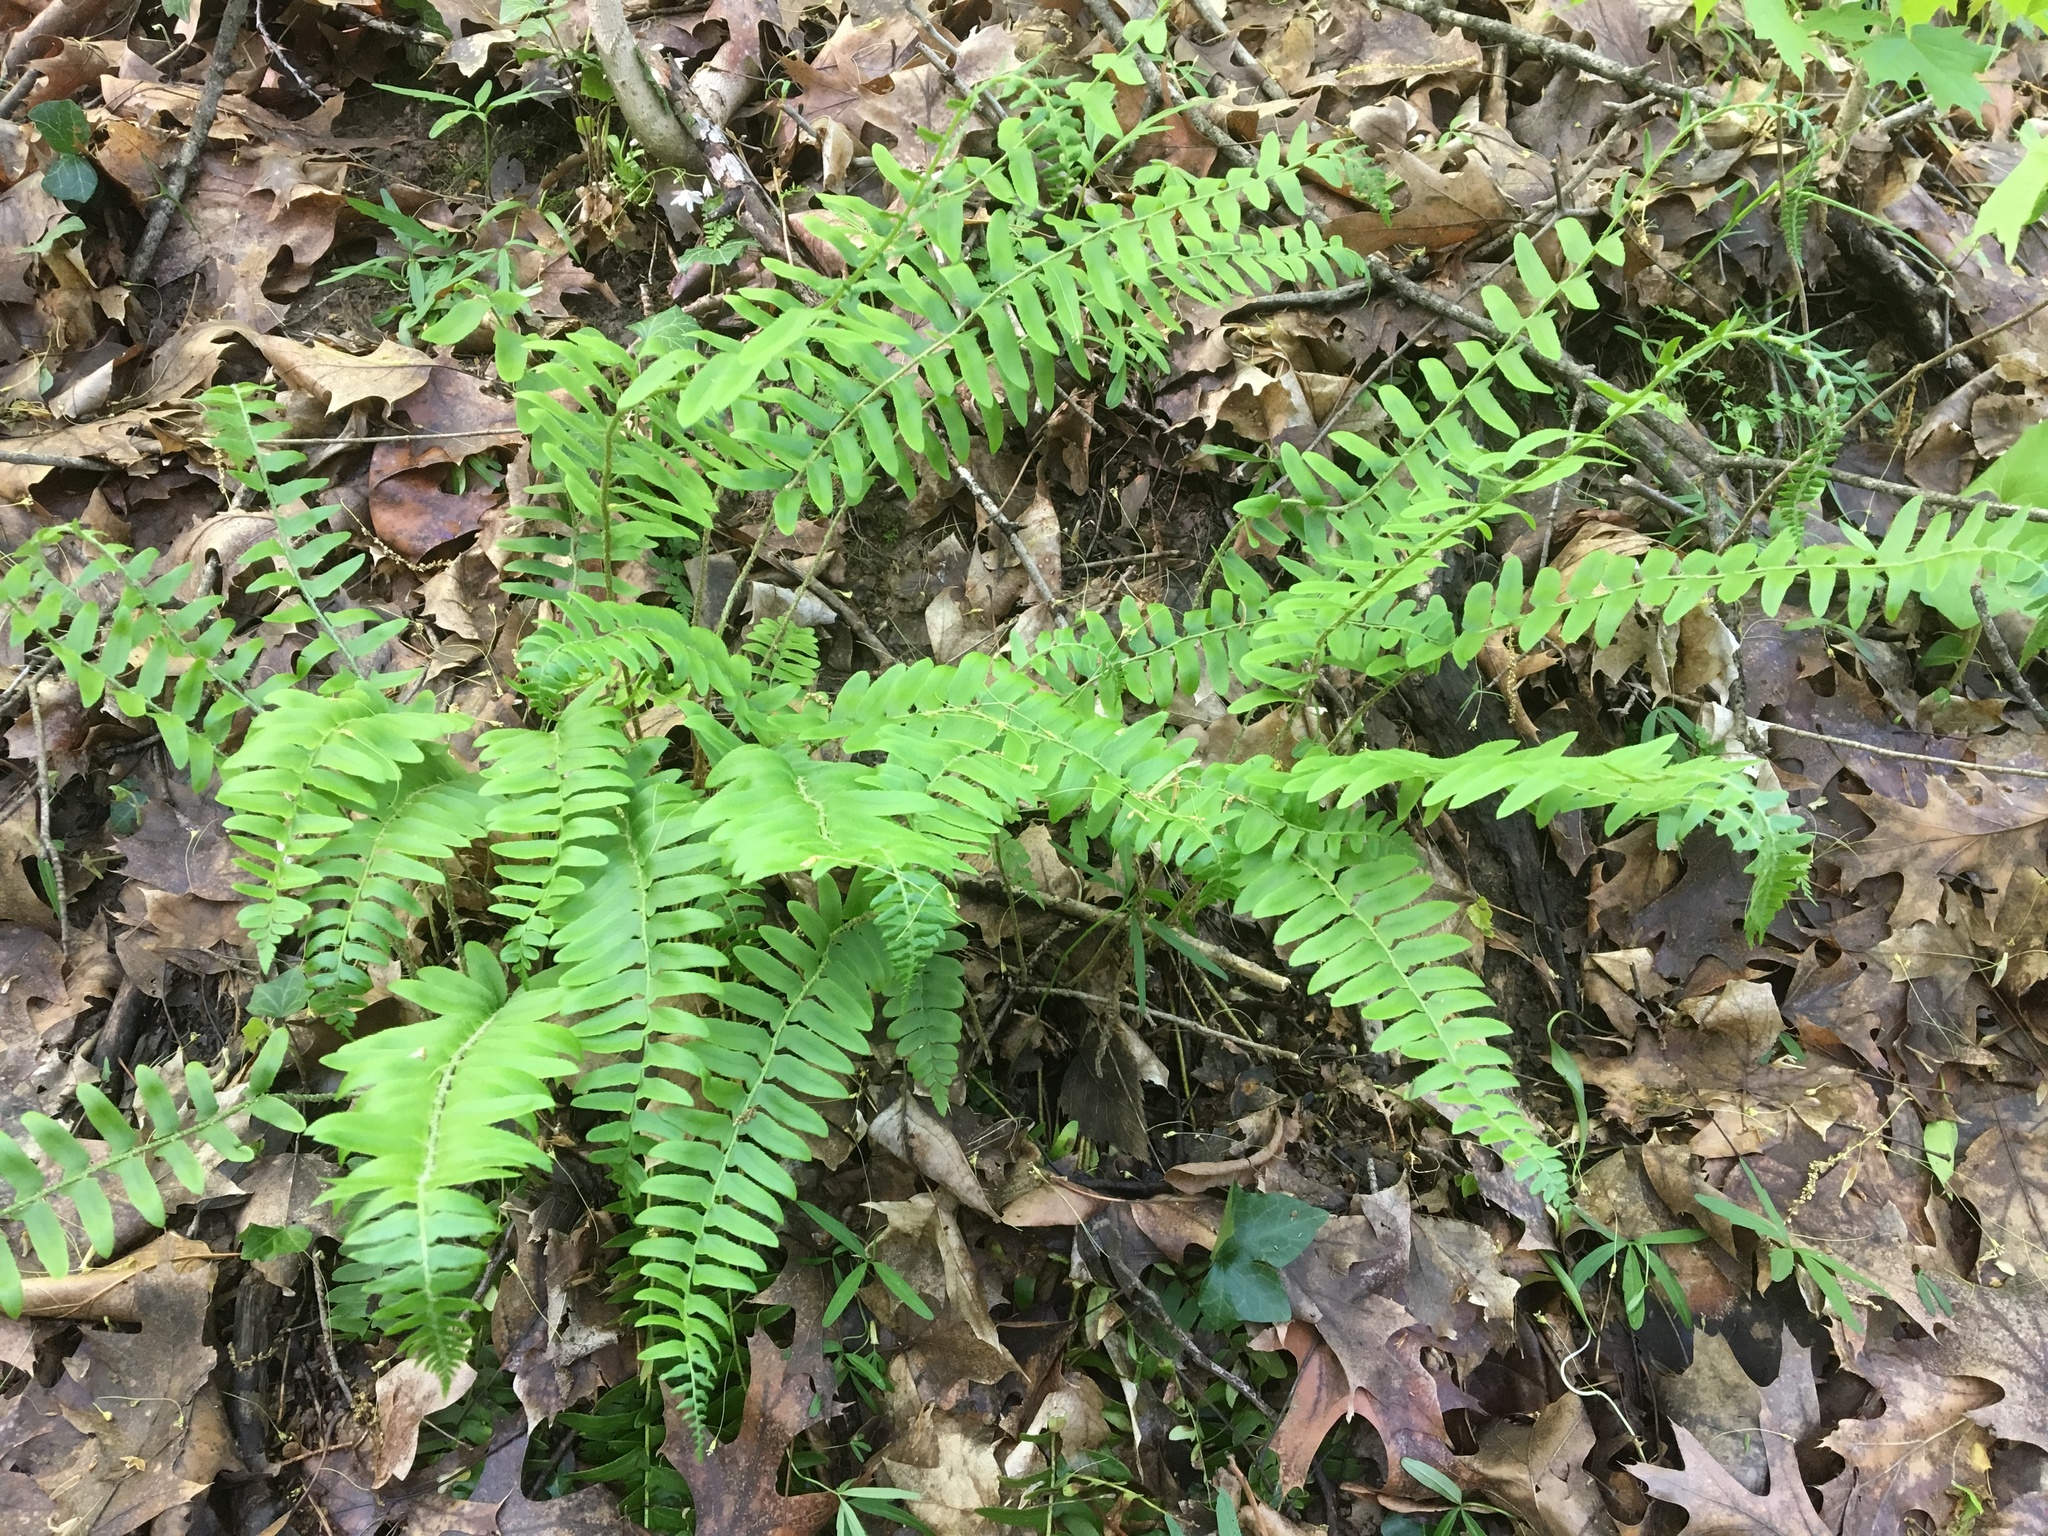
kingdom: Plantae
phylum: Tracheophyta
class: Polypodiopsida
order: Polypodiales
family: Dryopteridaceae
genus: Polystichum
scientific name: Polystichum acrostichoides
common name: Christmas fern
